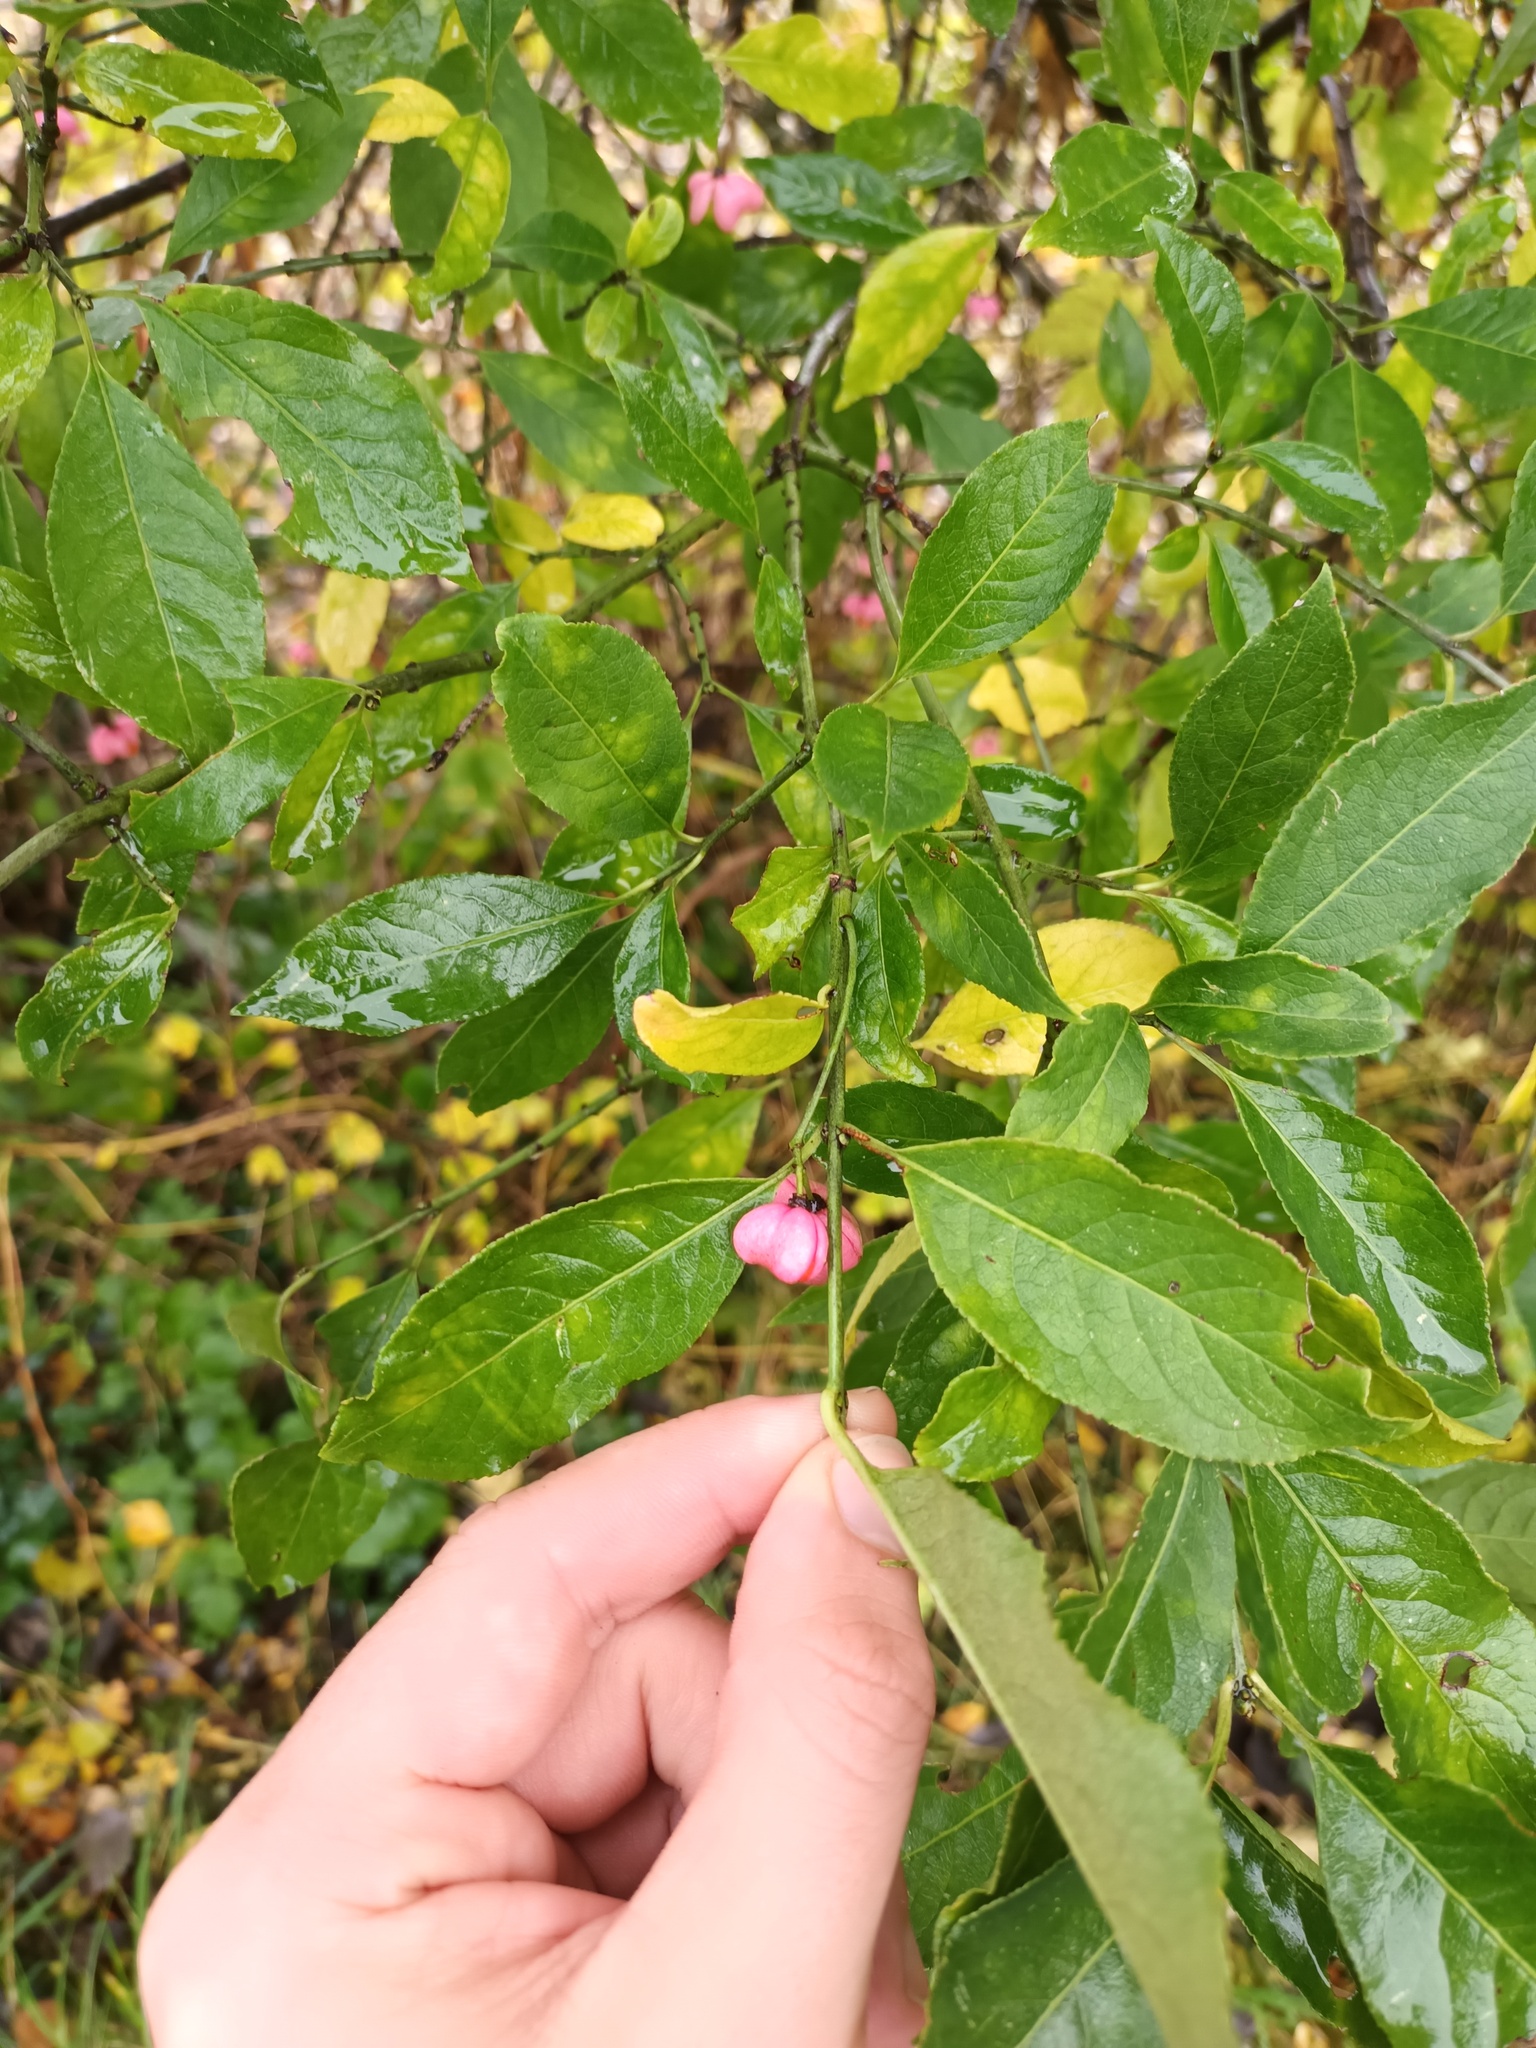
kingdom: Plantae
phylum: Tracheophyta
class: Magnoliopsida
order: Celastrales
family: Celastraceae
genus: Euonymus
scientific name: Euonymus europaeus
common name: Spindle
